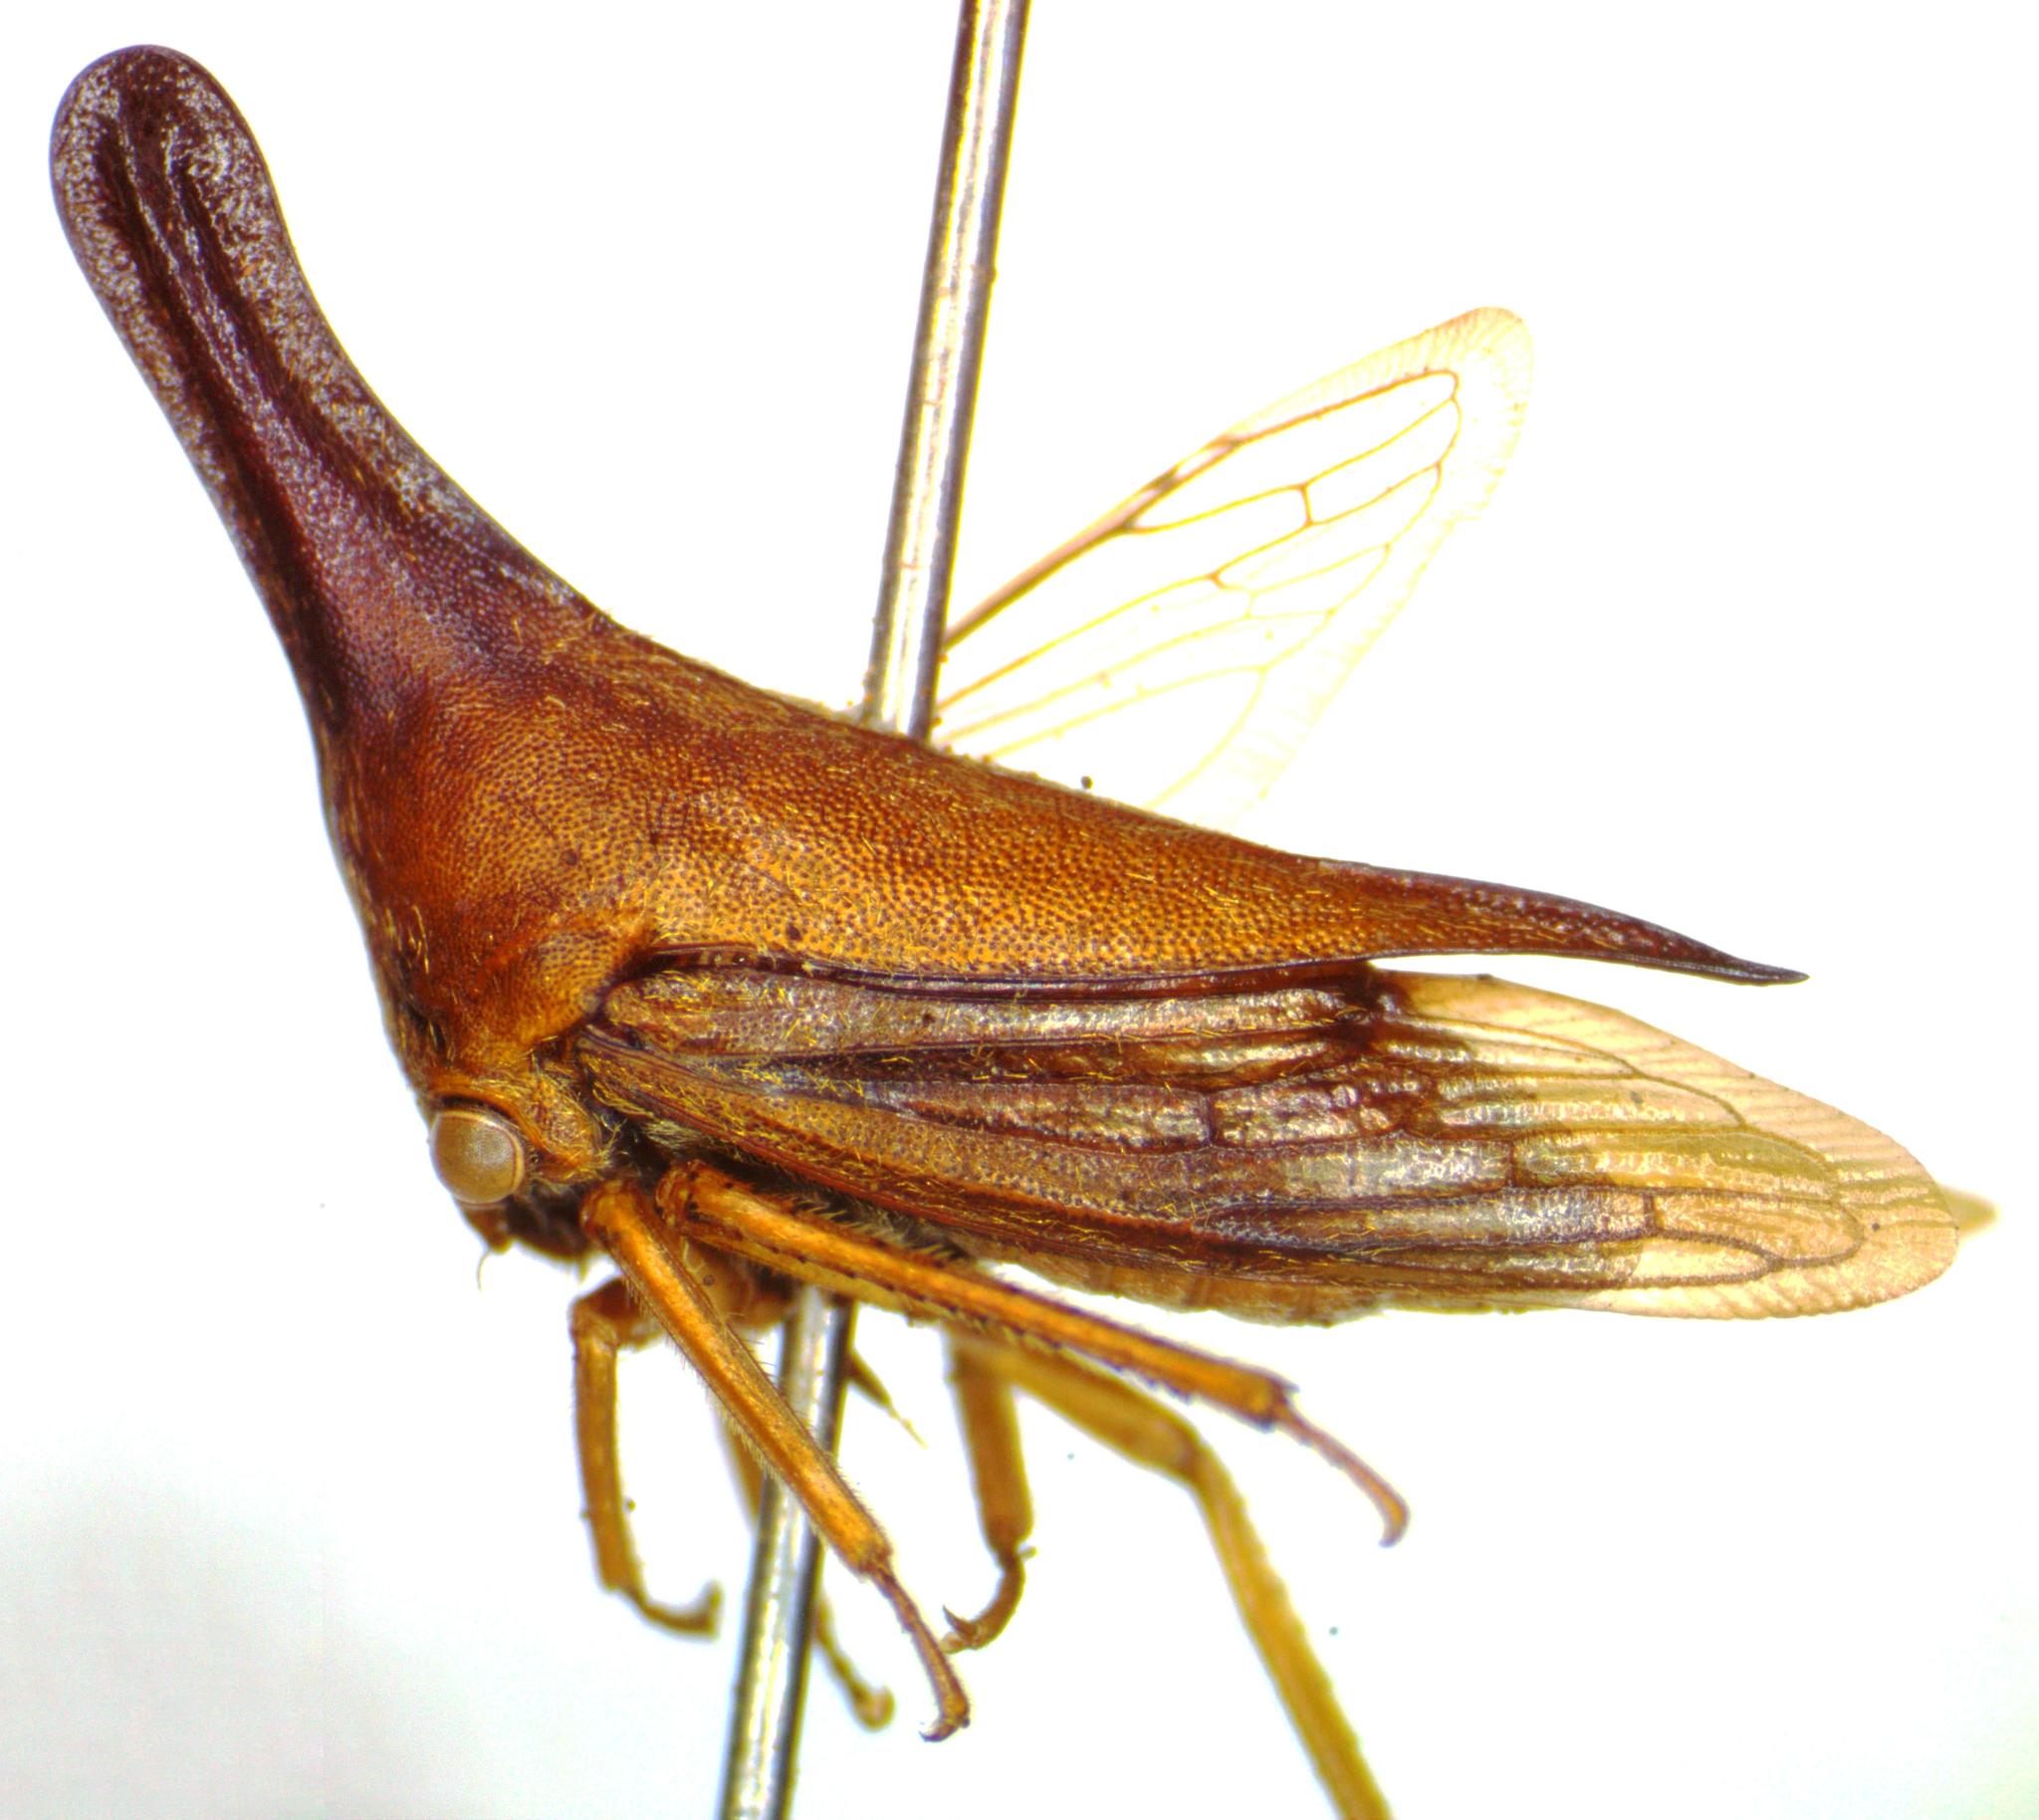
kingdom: Animalia
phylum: Arthropoda
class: Insecta
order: Hemiptera
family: Membracidae
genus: Aconophora
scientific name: Aconophora laminata
